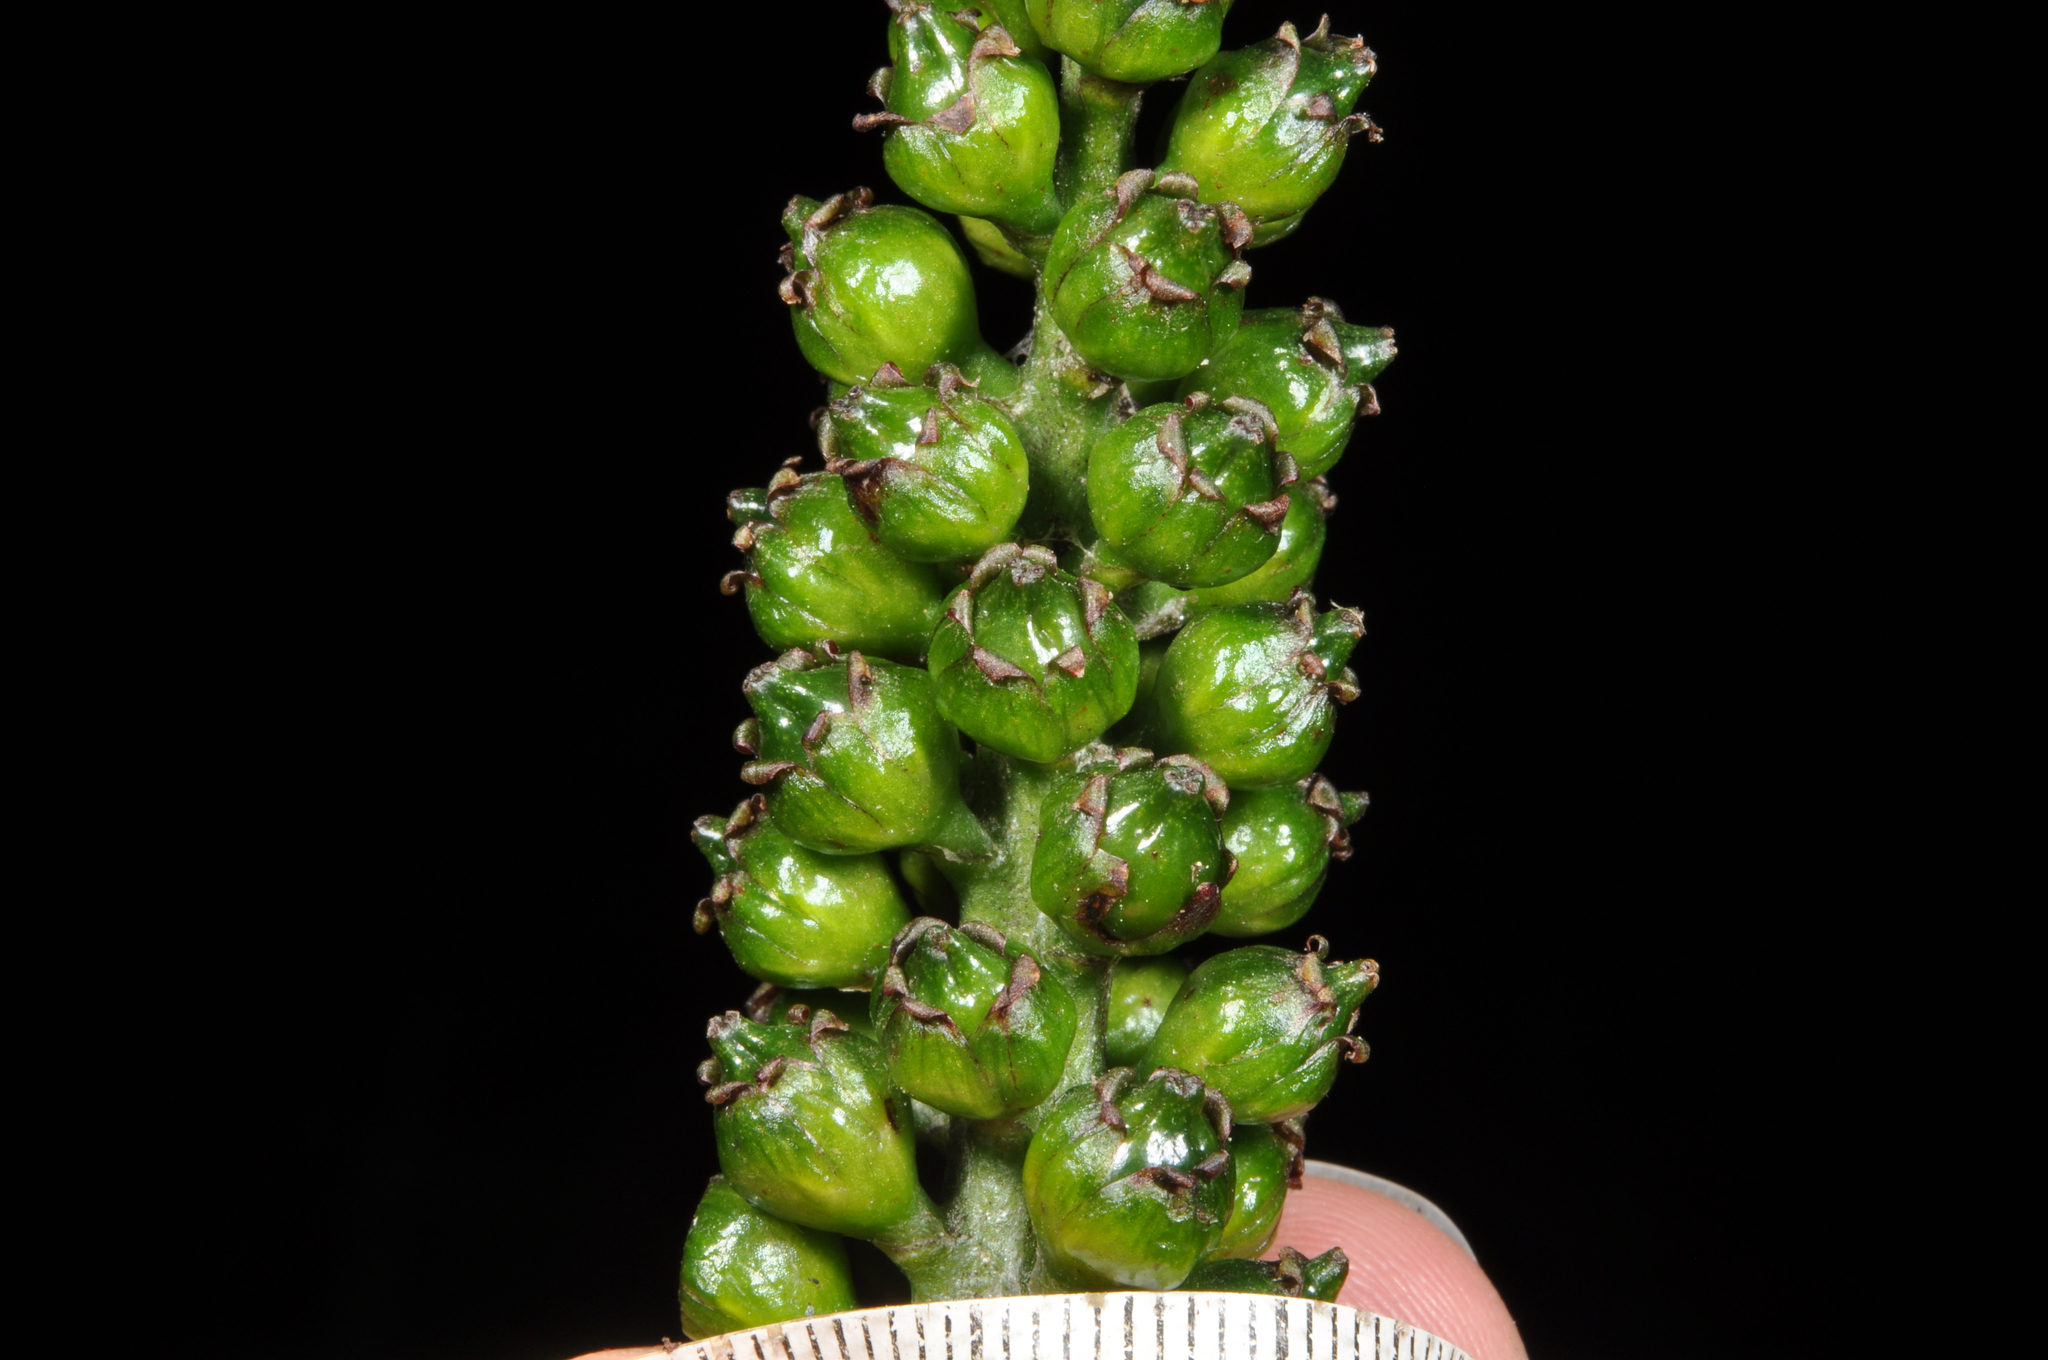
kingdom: Plantae
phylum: Tracheophyta
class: Liliopsida
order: Asparagales
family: Asteliaceae
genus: Astelia
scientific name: Astelia grandis
